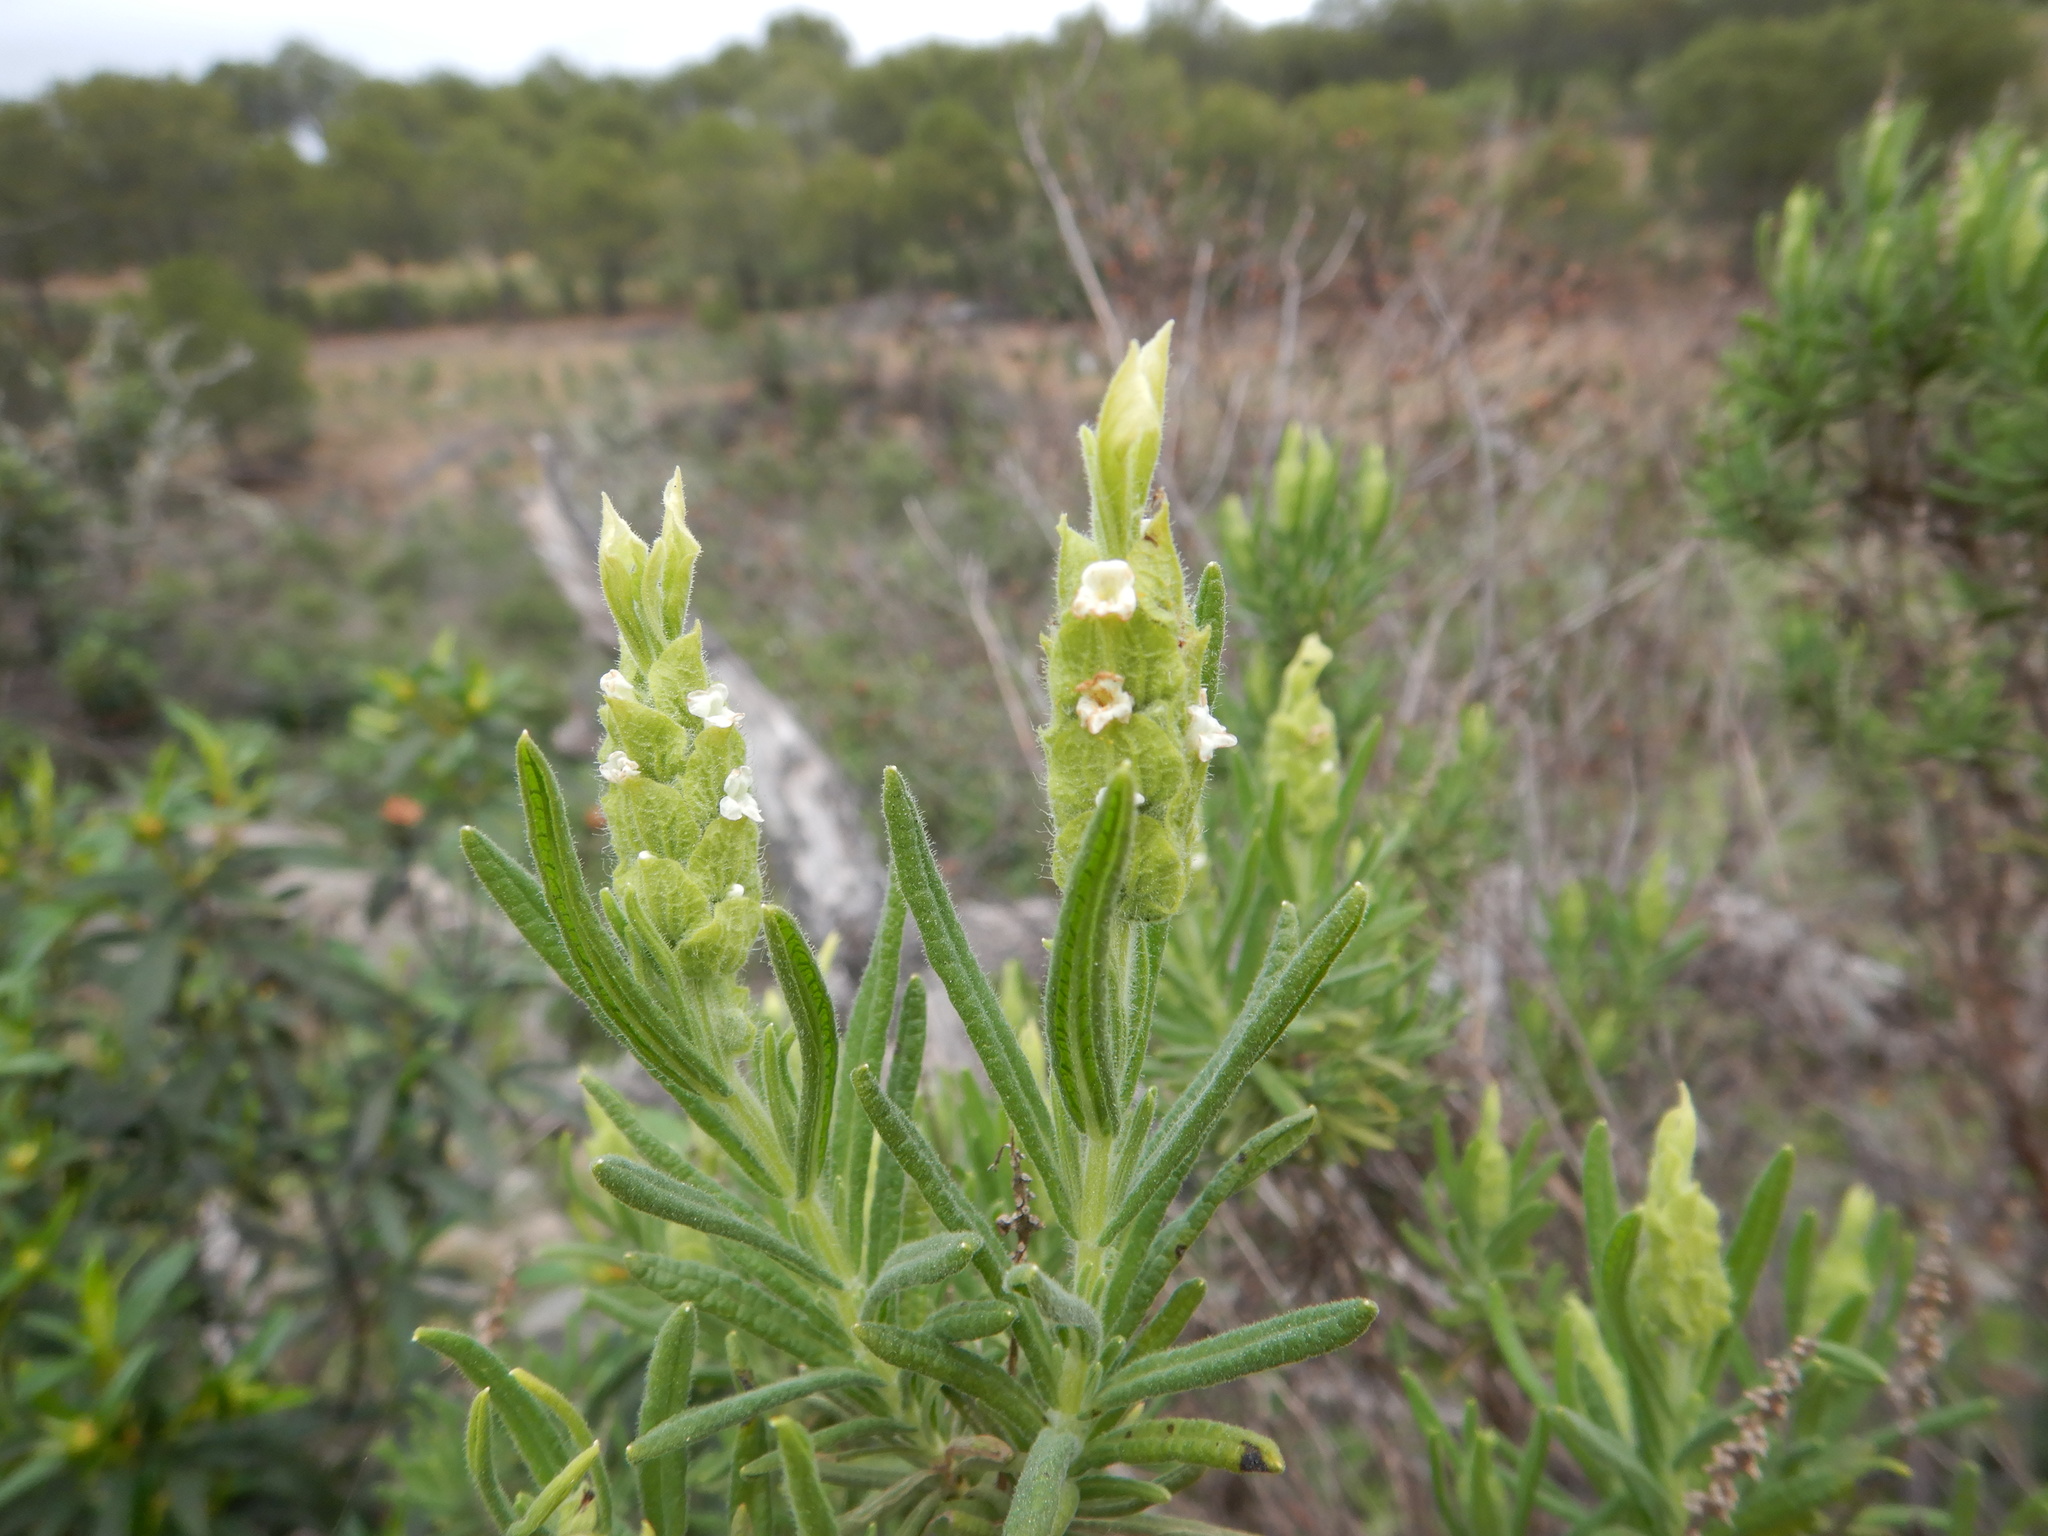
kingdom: Plantae
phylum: Tracheophyta
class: Magnoliopsida
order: Lamiales
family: Lamiaceae
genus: Lavandula
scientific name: Lavandula viridis
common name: Green spanish lavender
